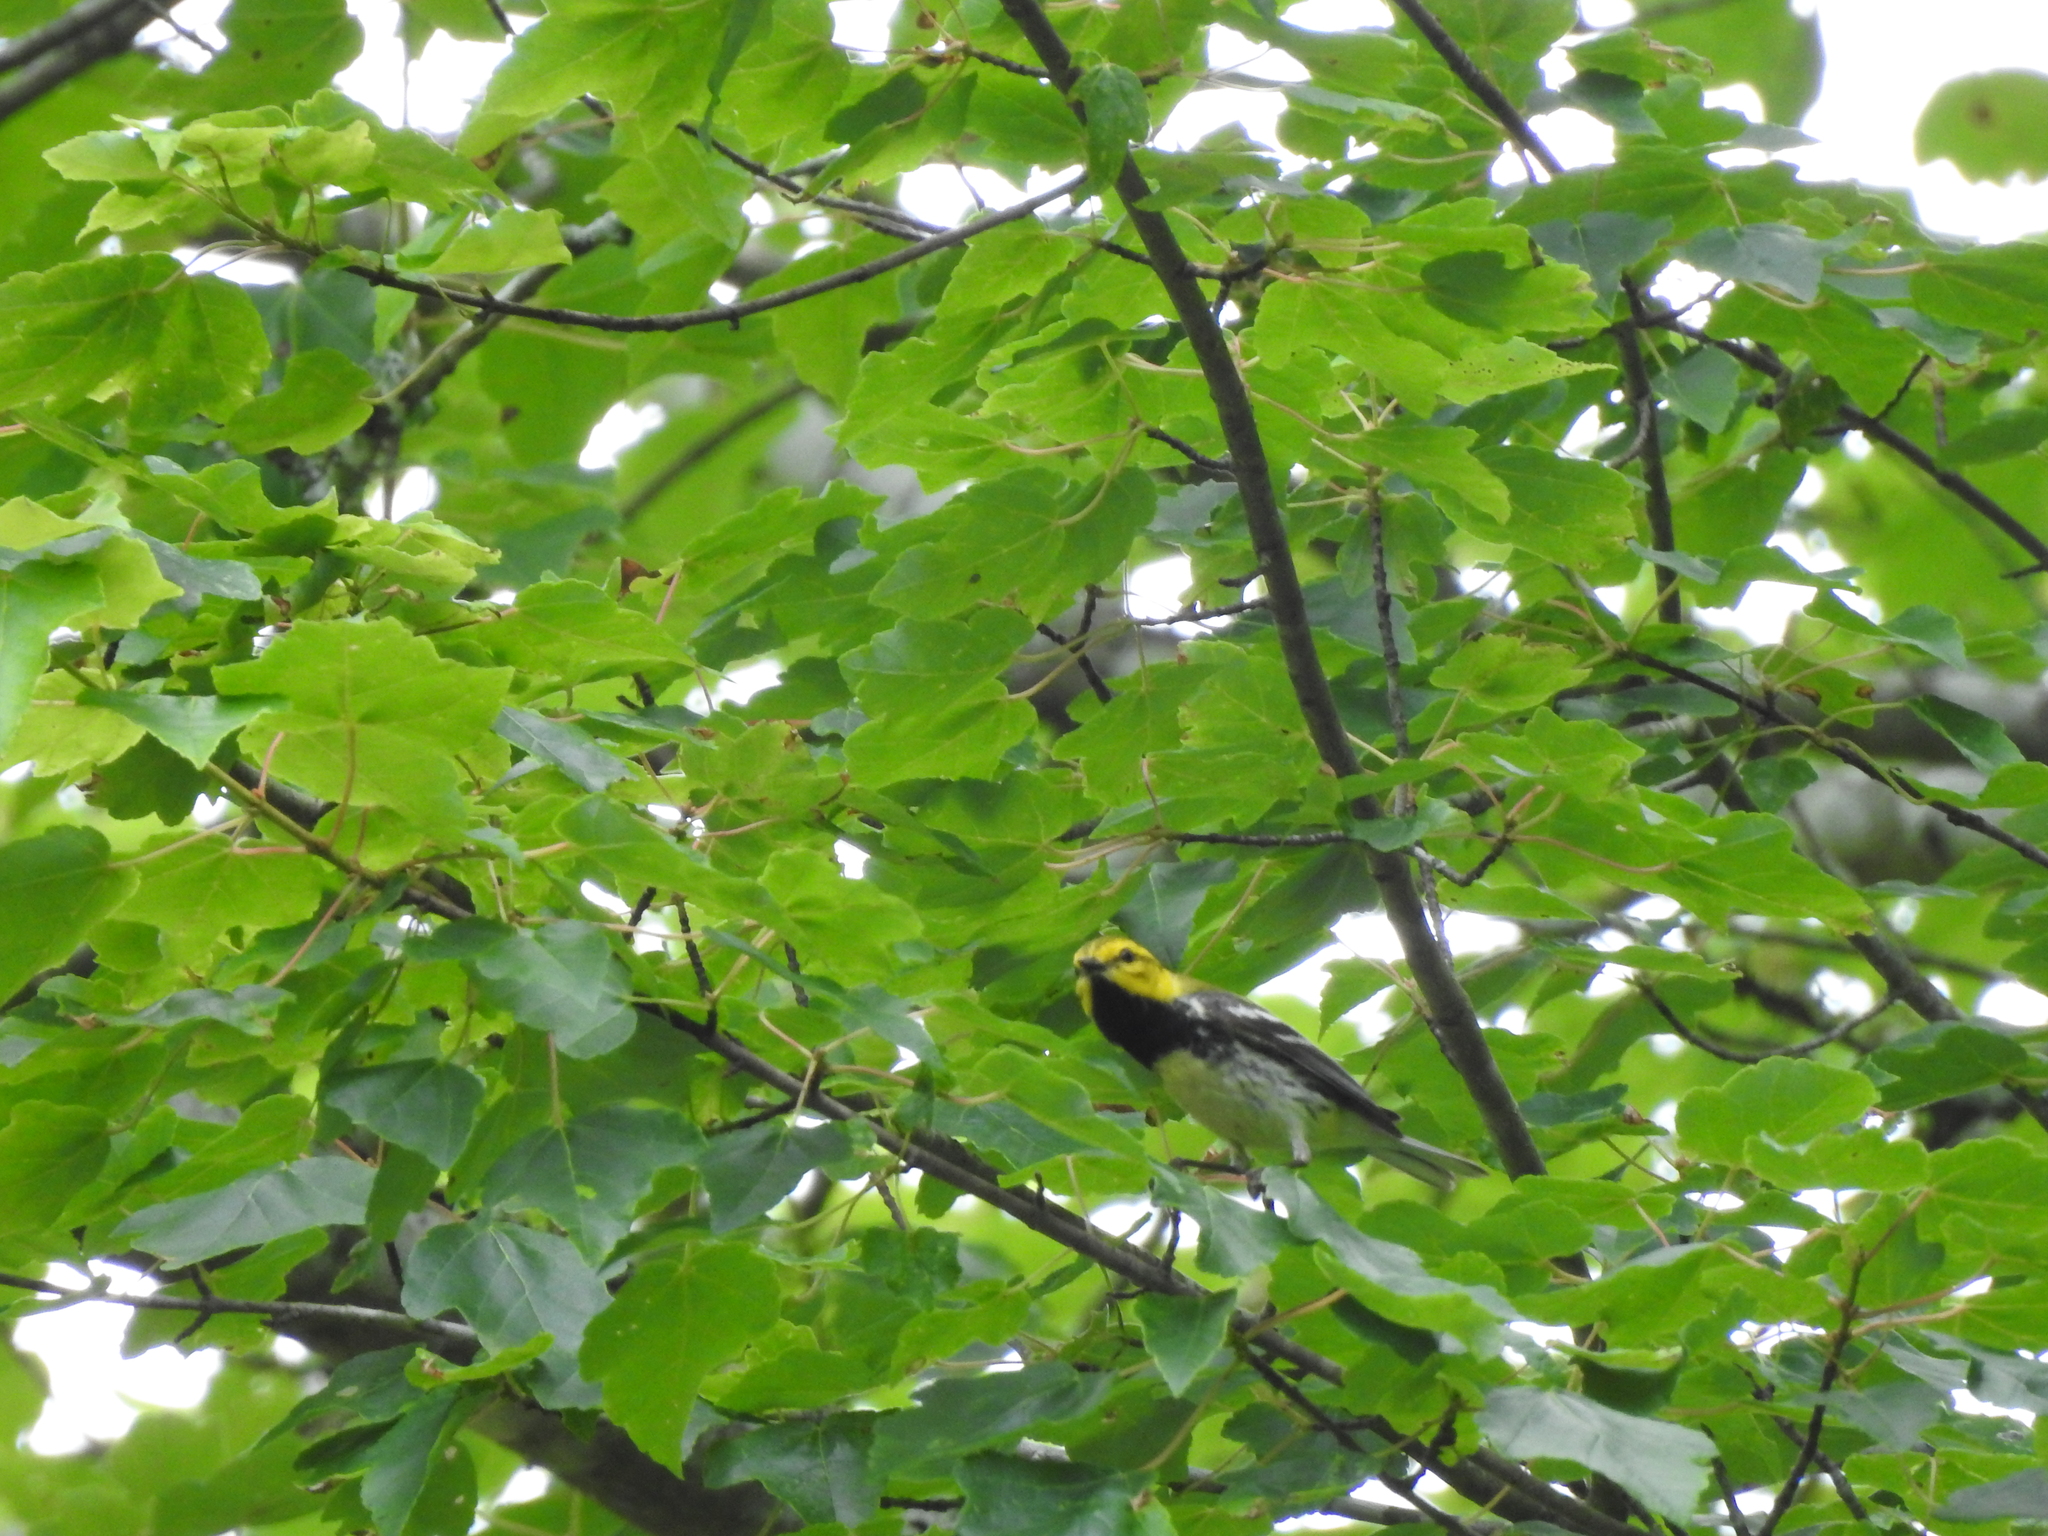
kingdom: Animalia
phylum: Chordata
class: Aves
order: Passeriformes
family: Parulidae
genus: Setophaga
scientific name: Setophaga virens
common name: Black-throated green warbler
